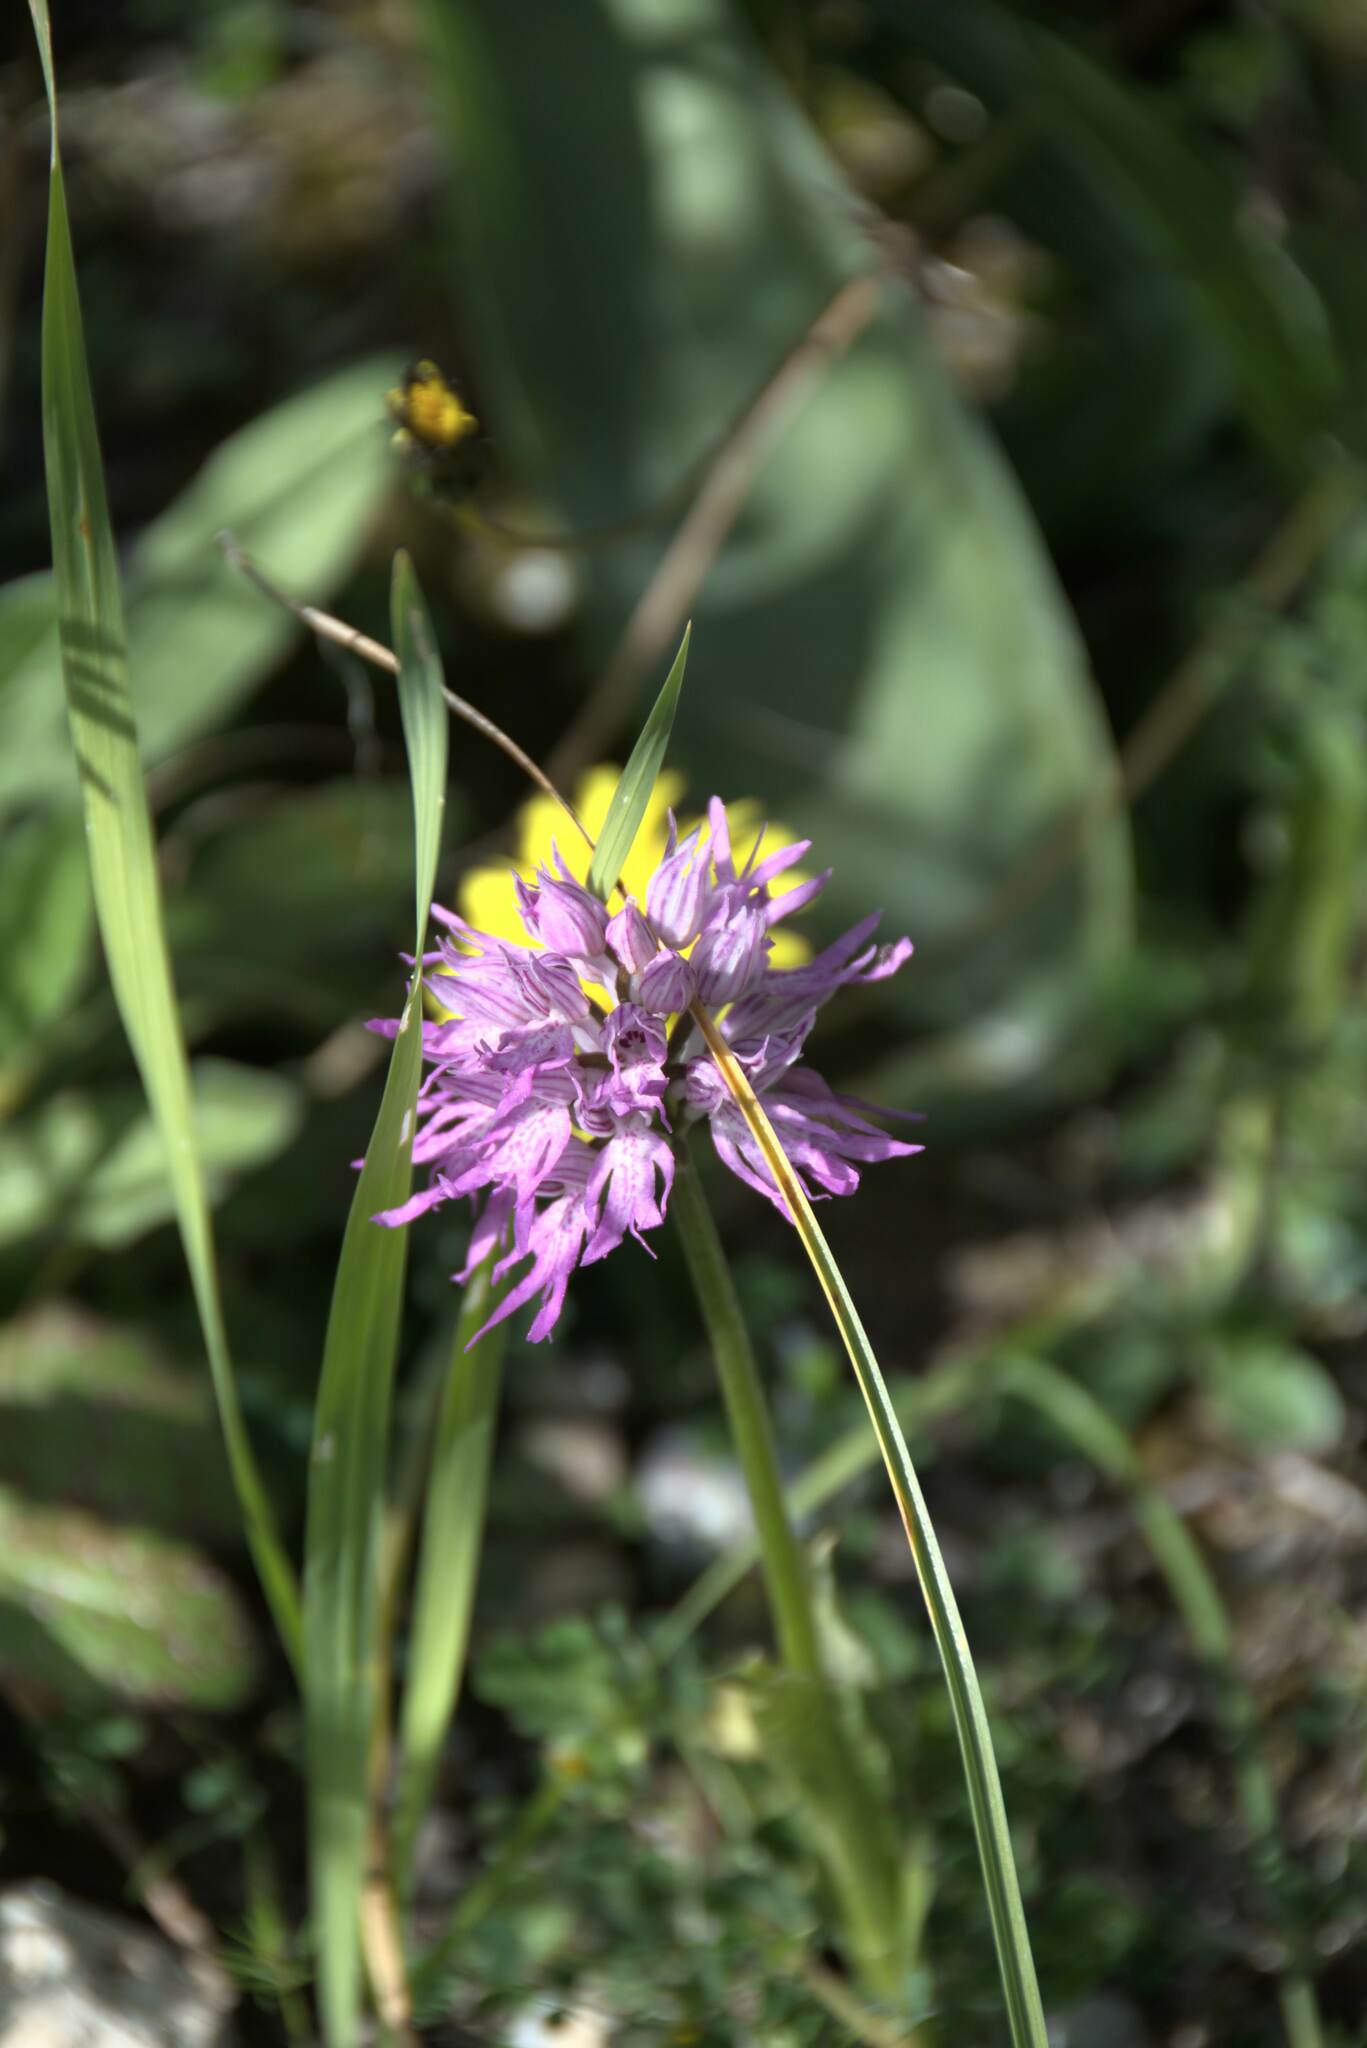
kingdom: Plantae
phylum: Tracheophyta
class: Liliopsida
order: Asparagales
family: Orchidaceae
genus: Orchis
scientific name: Orchis italica
